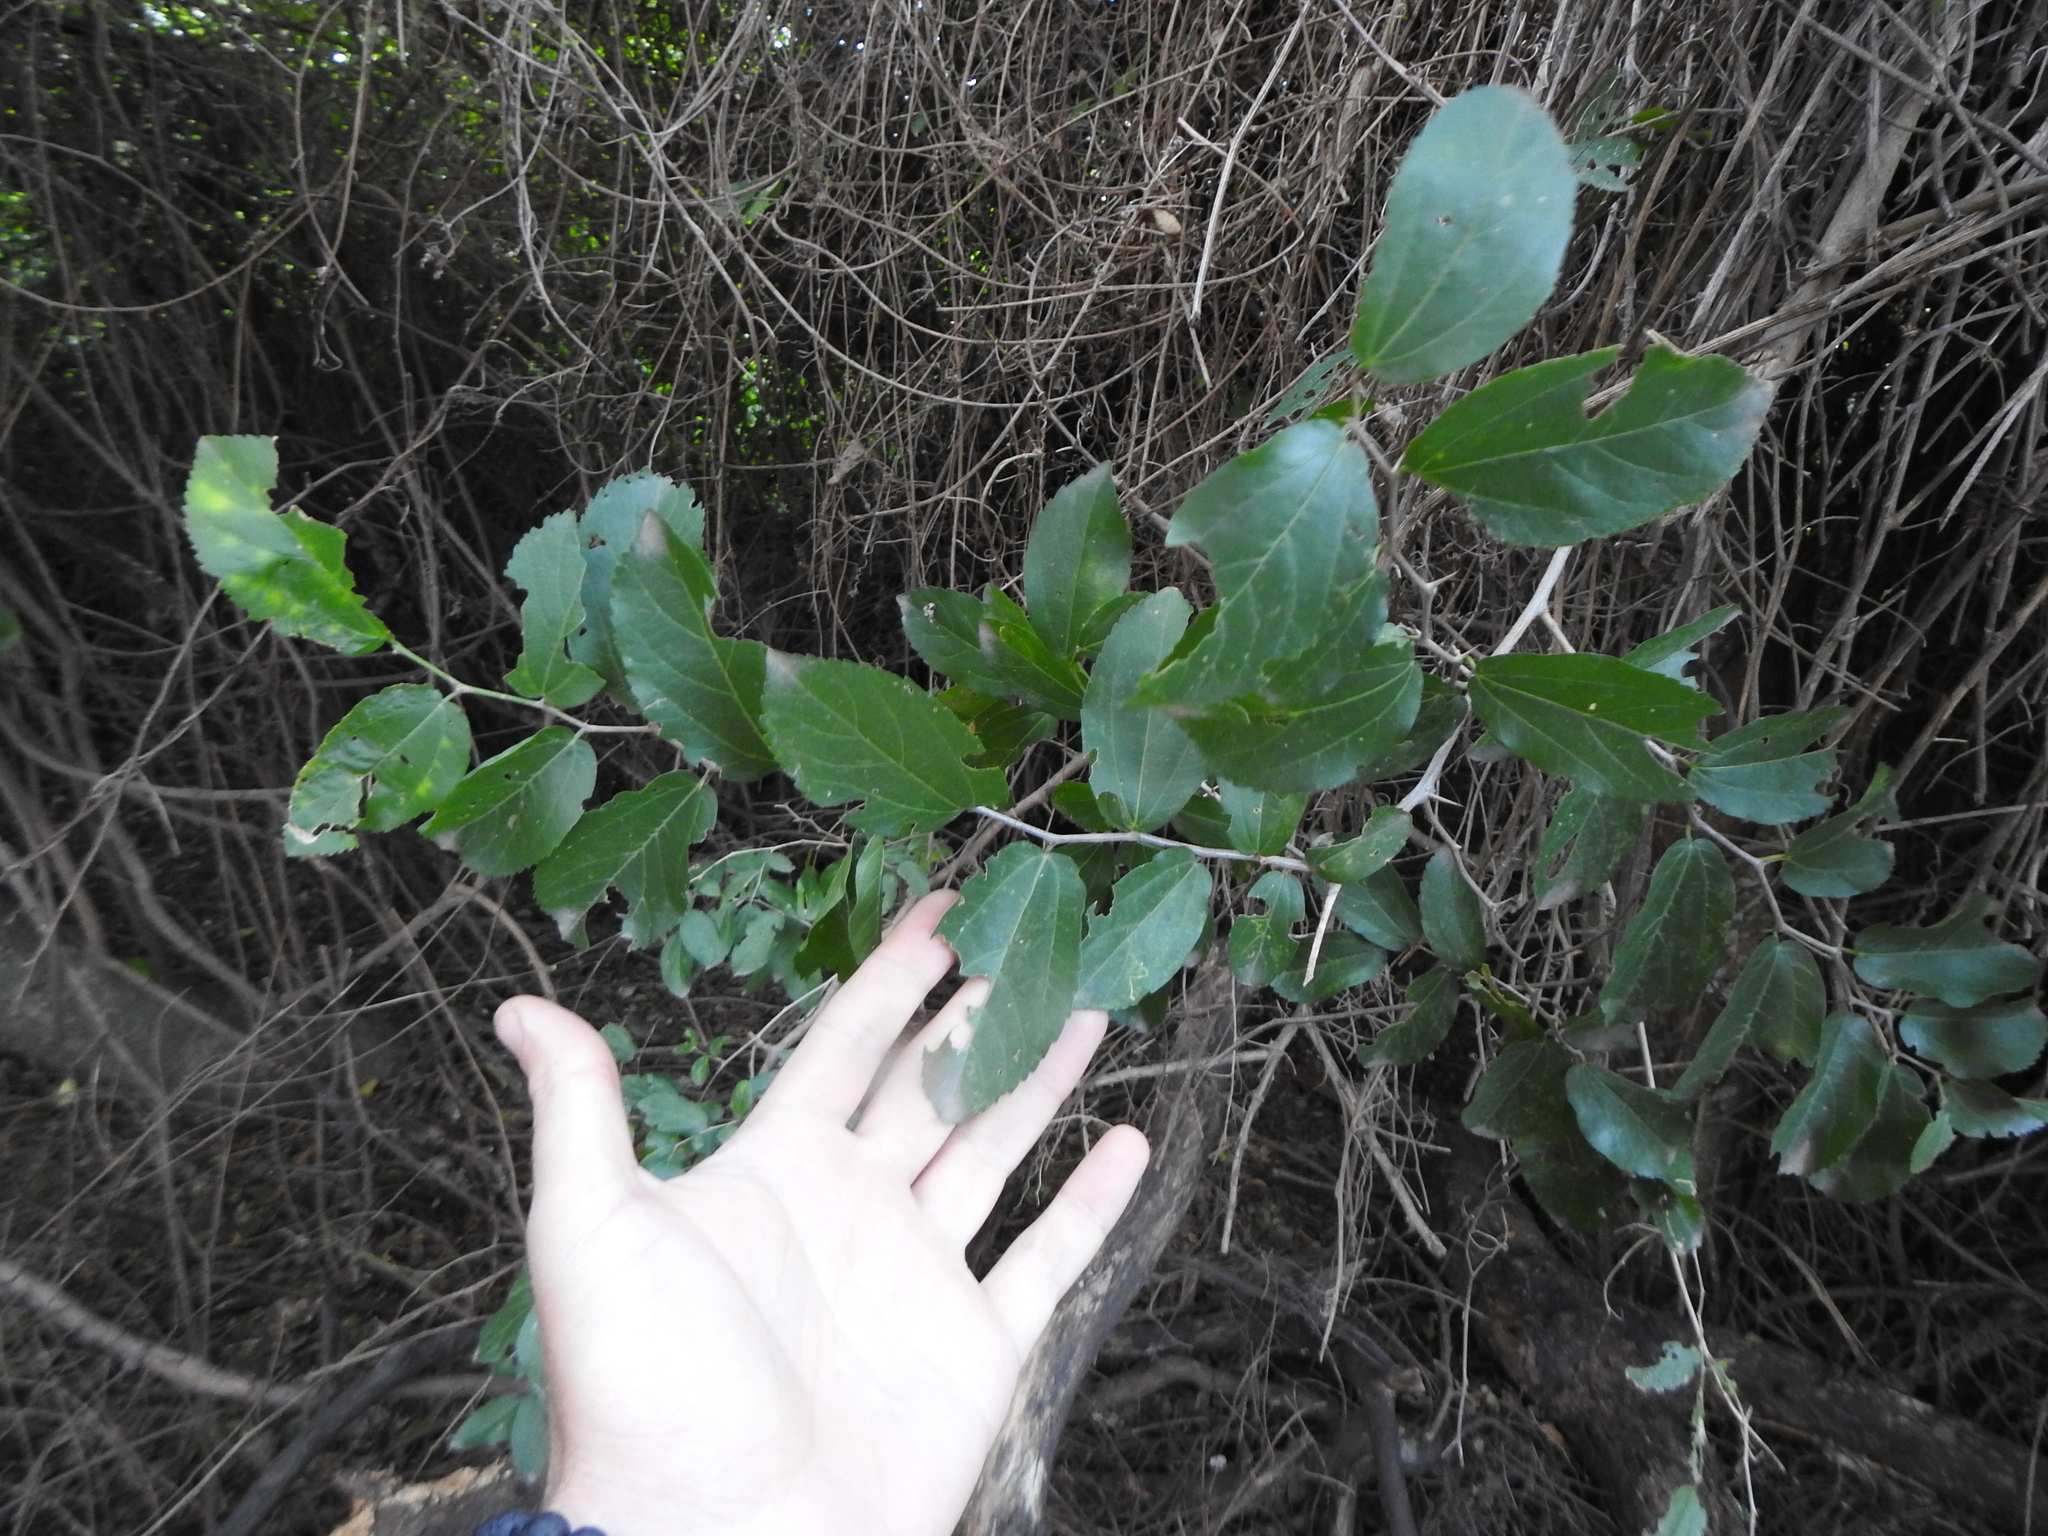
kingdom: Plantae
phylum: Tracheophyta
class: Magnoliopsida
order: Rosales
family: Cannabaceae
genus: Celtis
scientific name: Celtis tala
